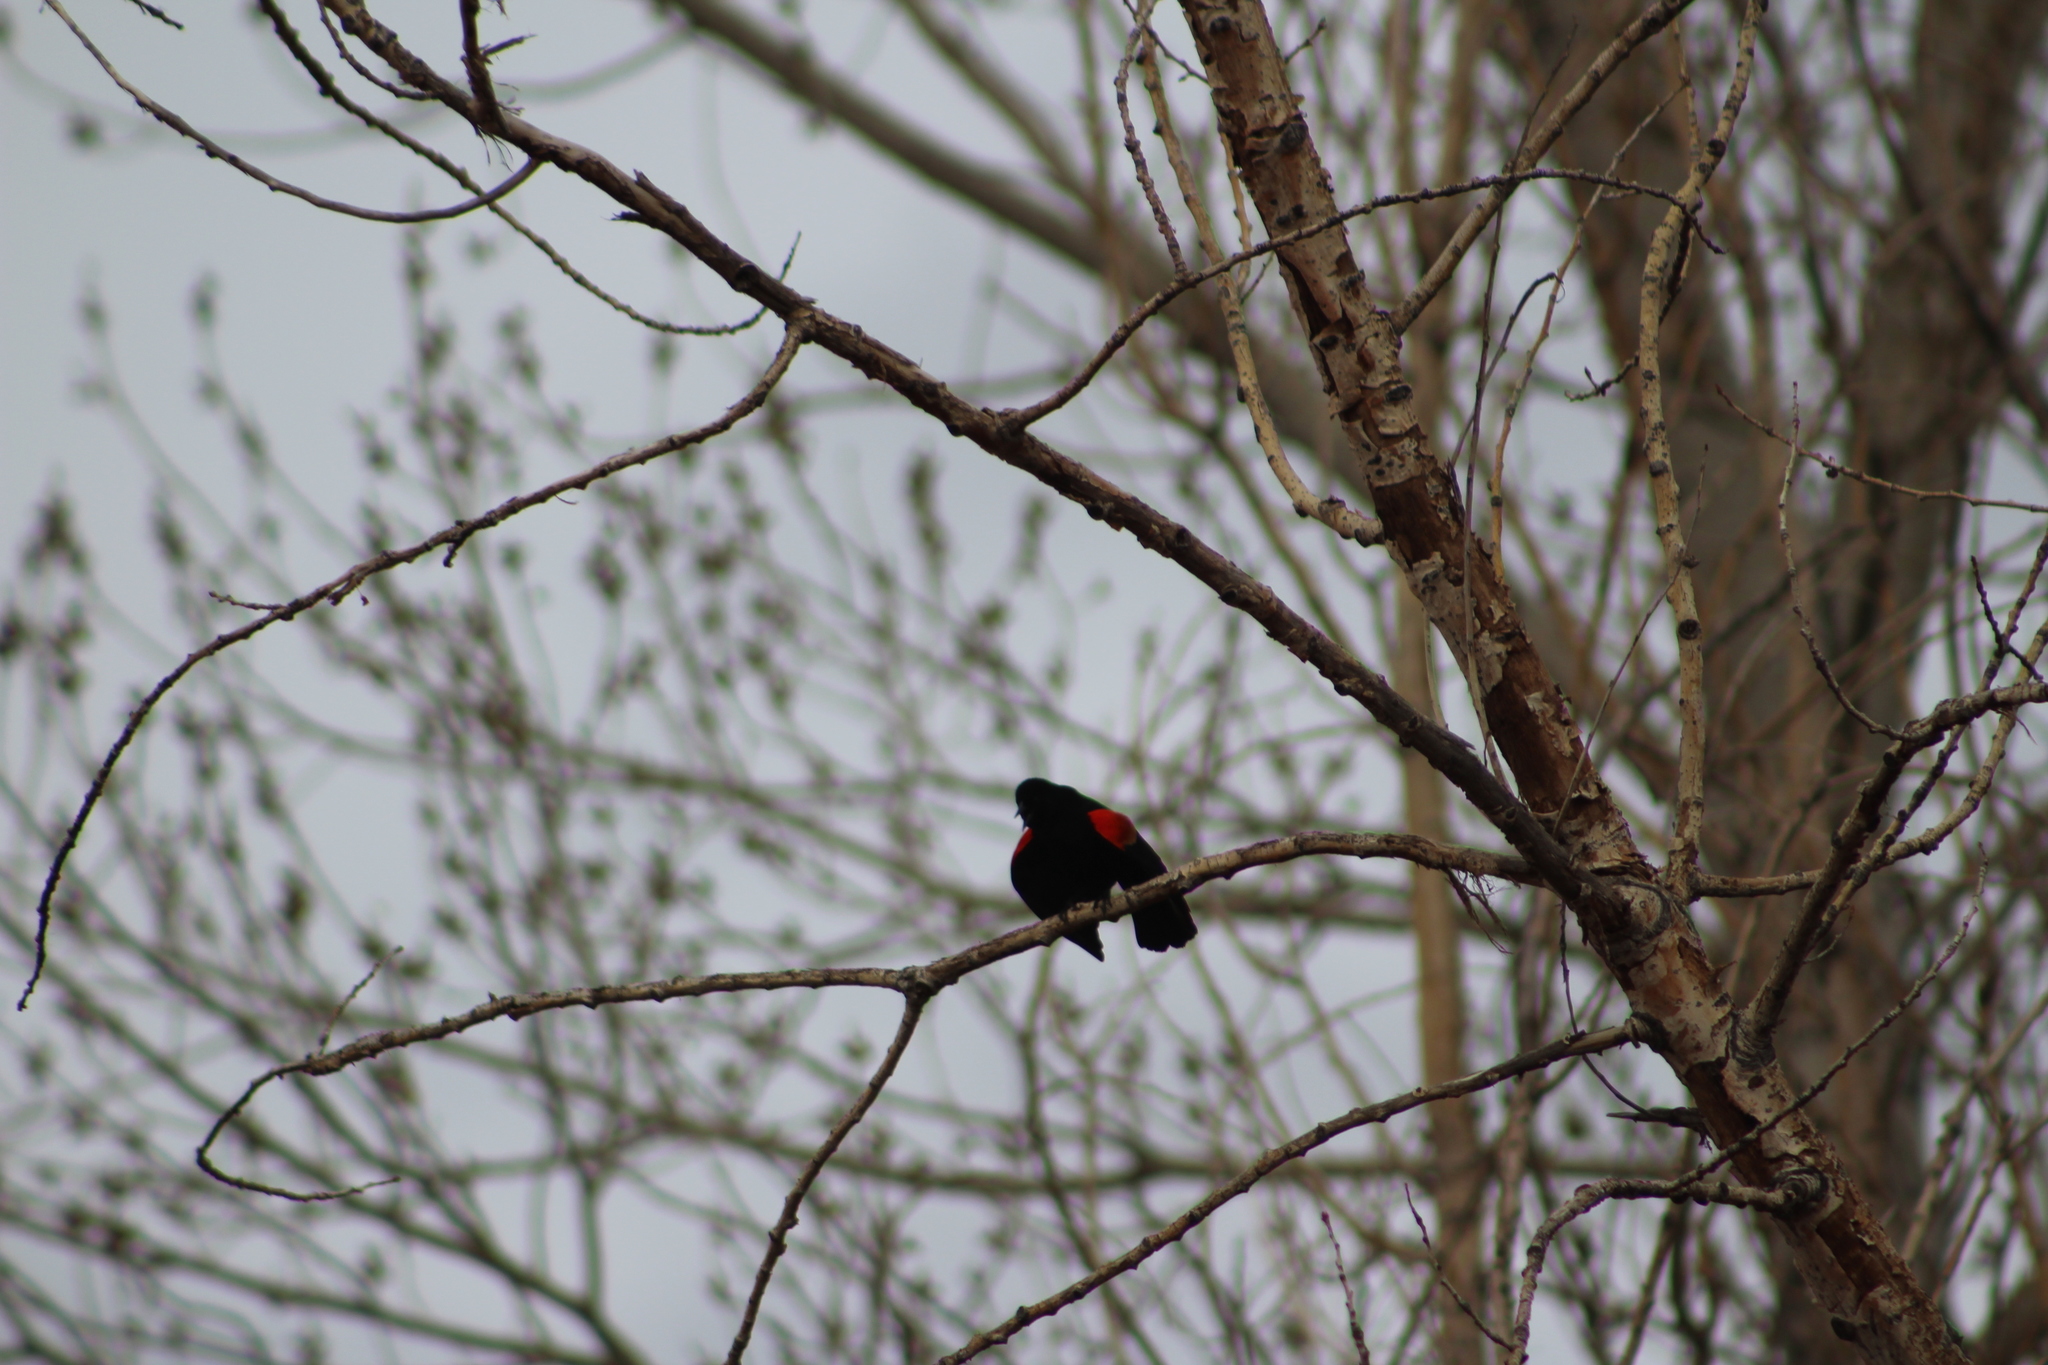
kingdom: Animalia
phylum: Chordata
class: Aves
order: Passeriformes
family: Icteridae
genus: Agelaius
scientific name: Agelaius phoeniceus
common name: Red-winged blackbird
